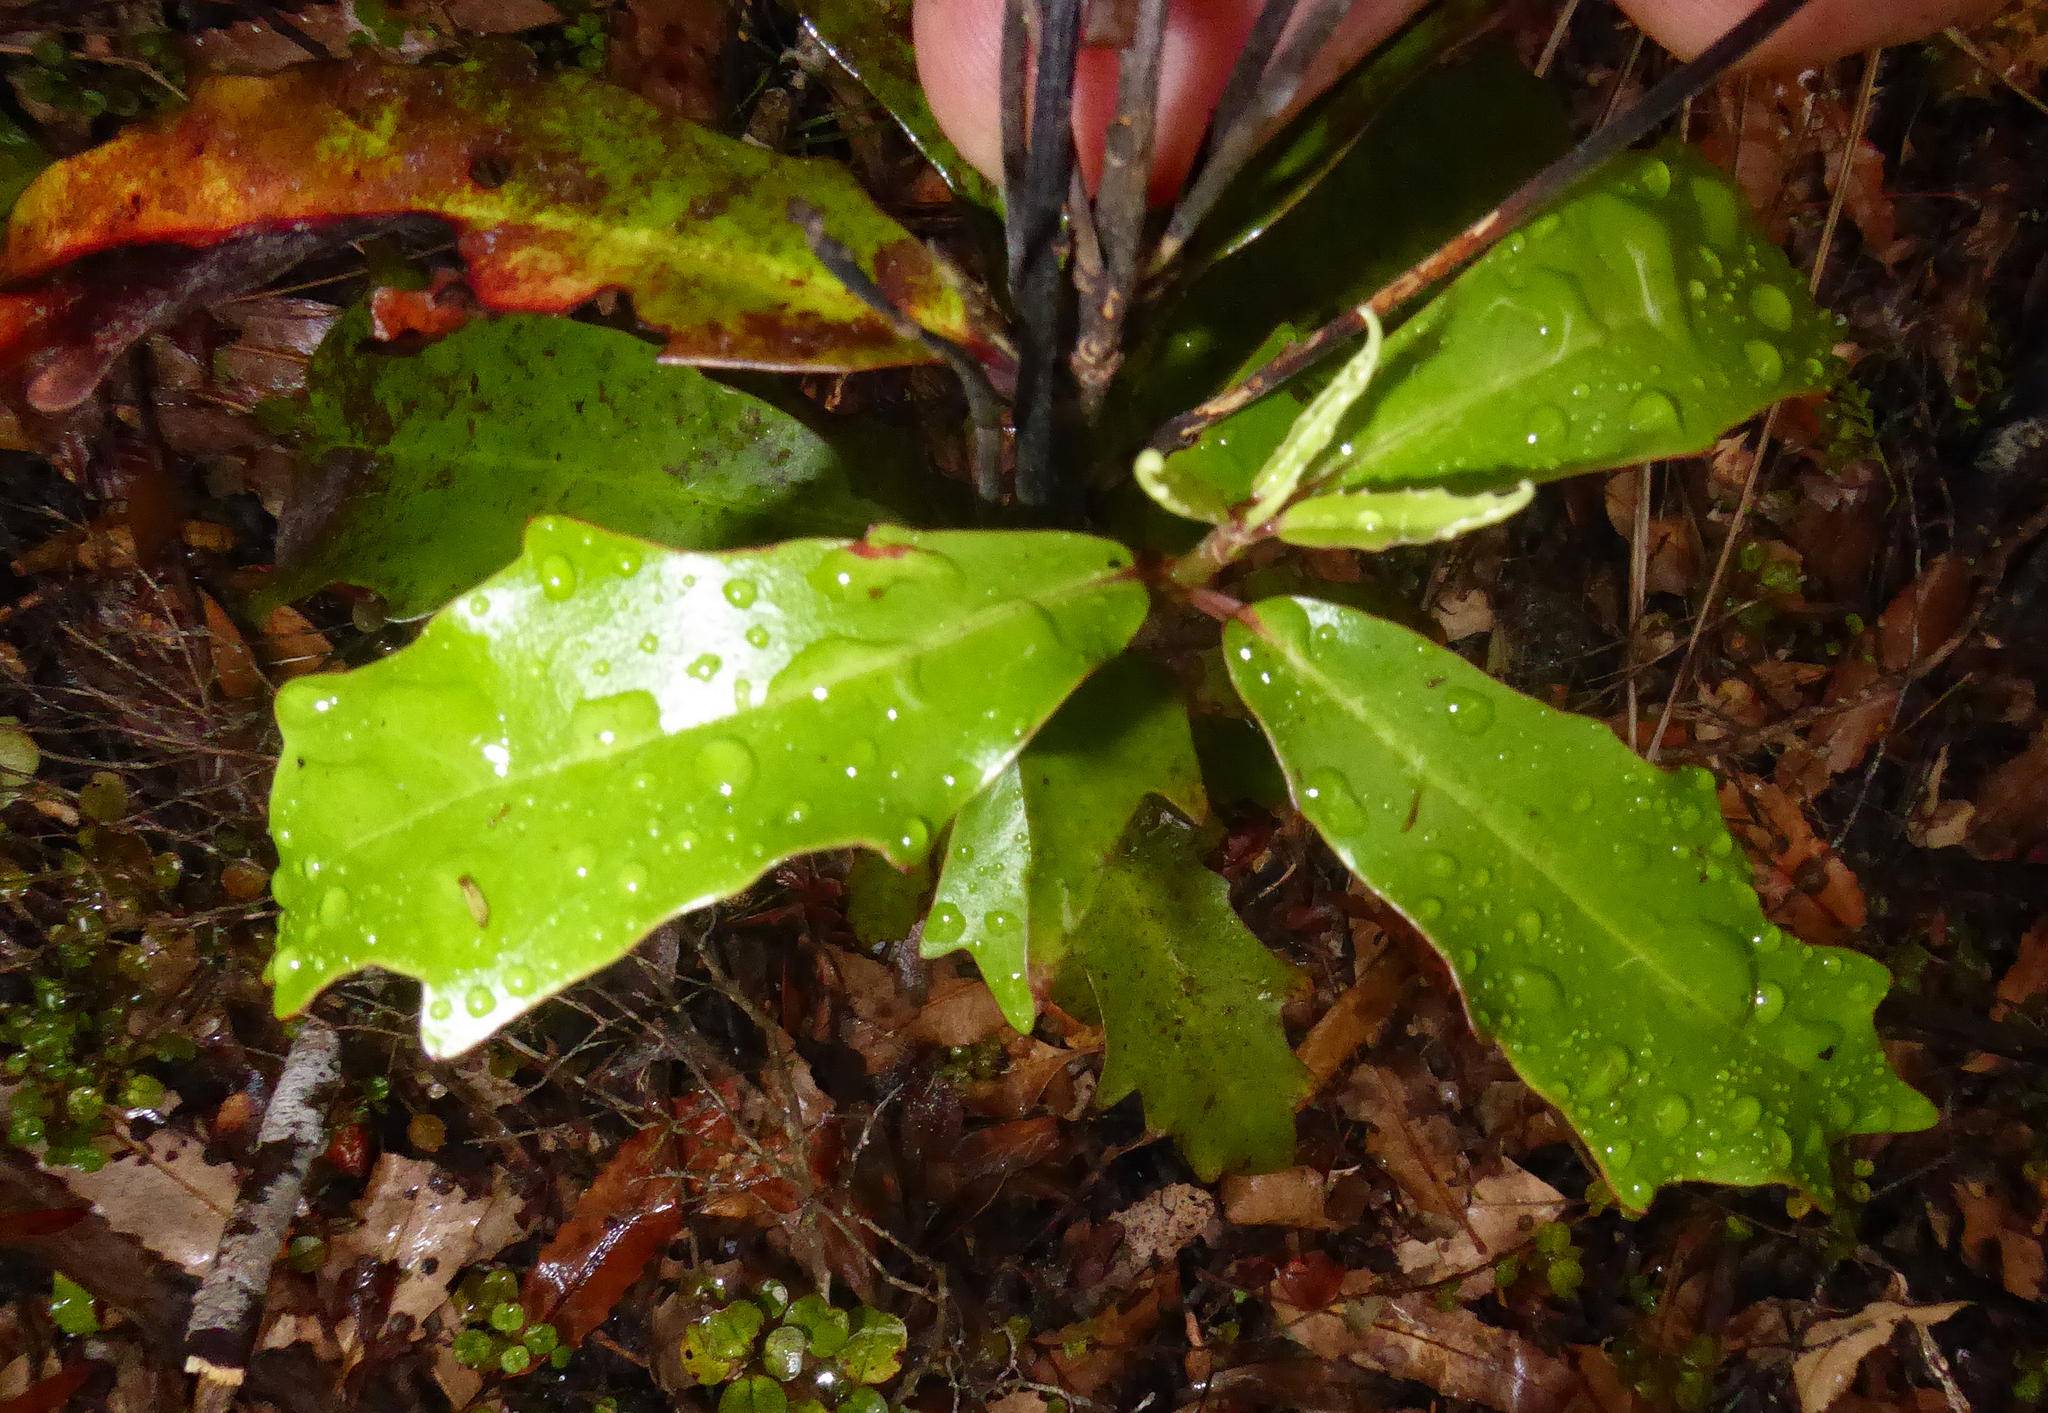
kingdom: Plantae
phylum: Tracheophyta
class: Magnoliopsida
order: Asterales
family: Alseuosmiaceae
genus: Alseuosmia
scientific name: Alseuosmia quercifolia
